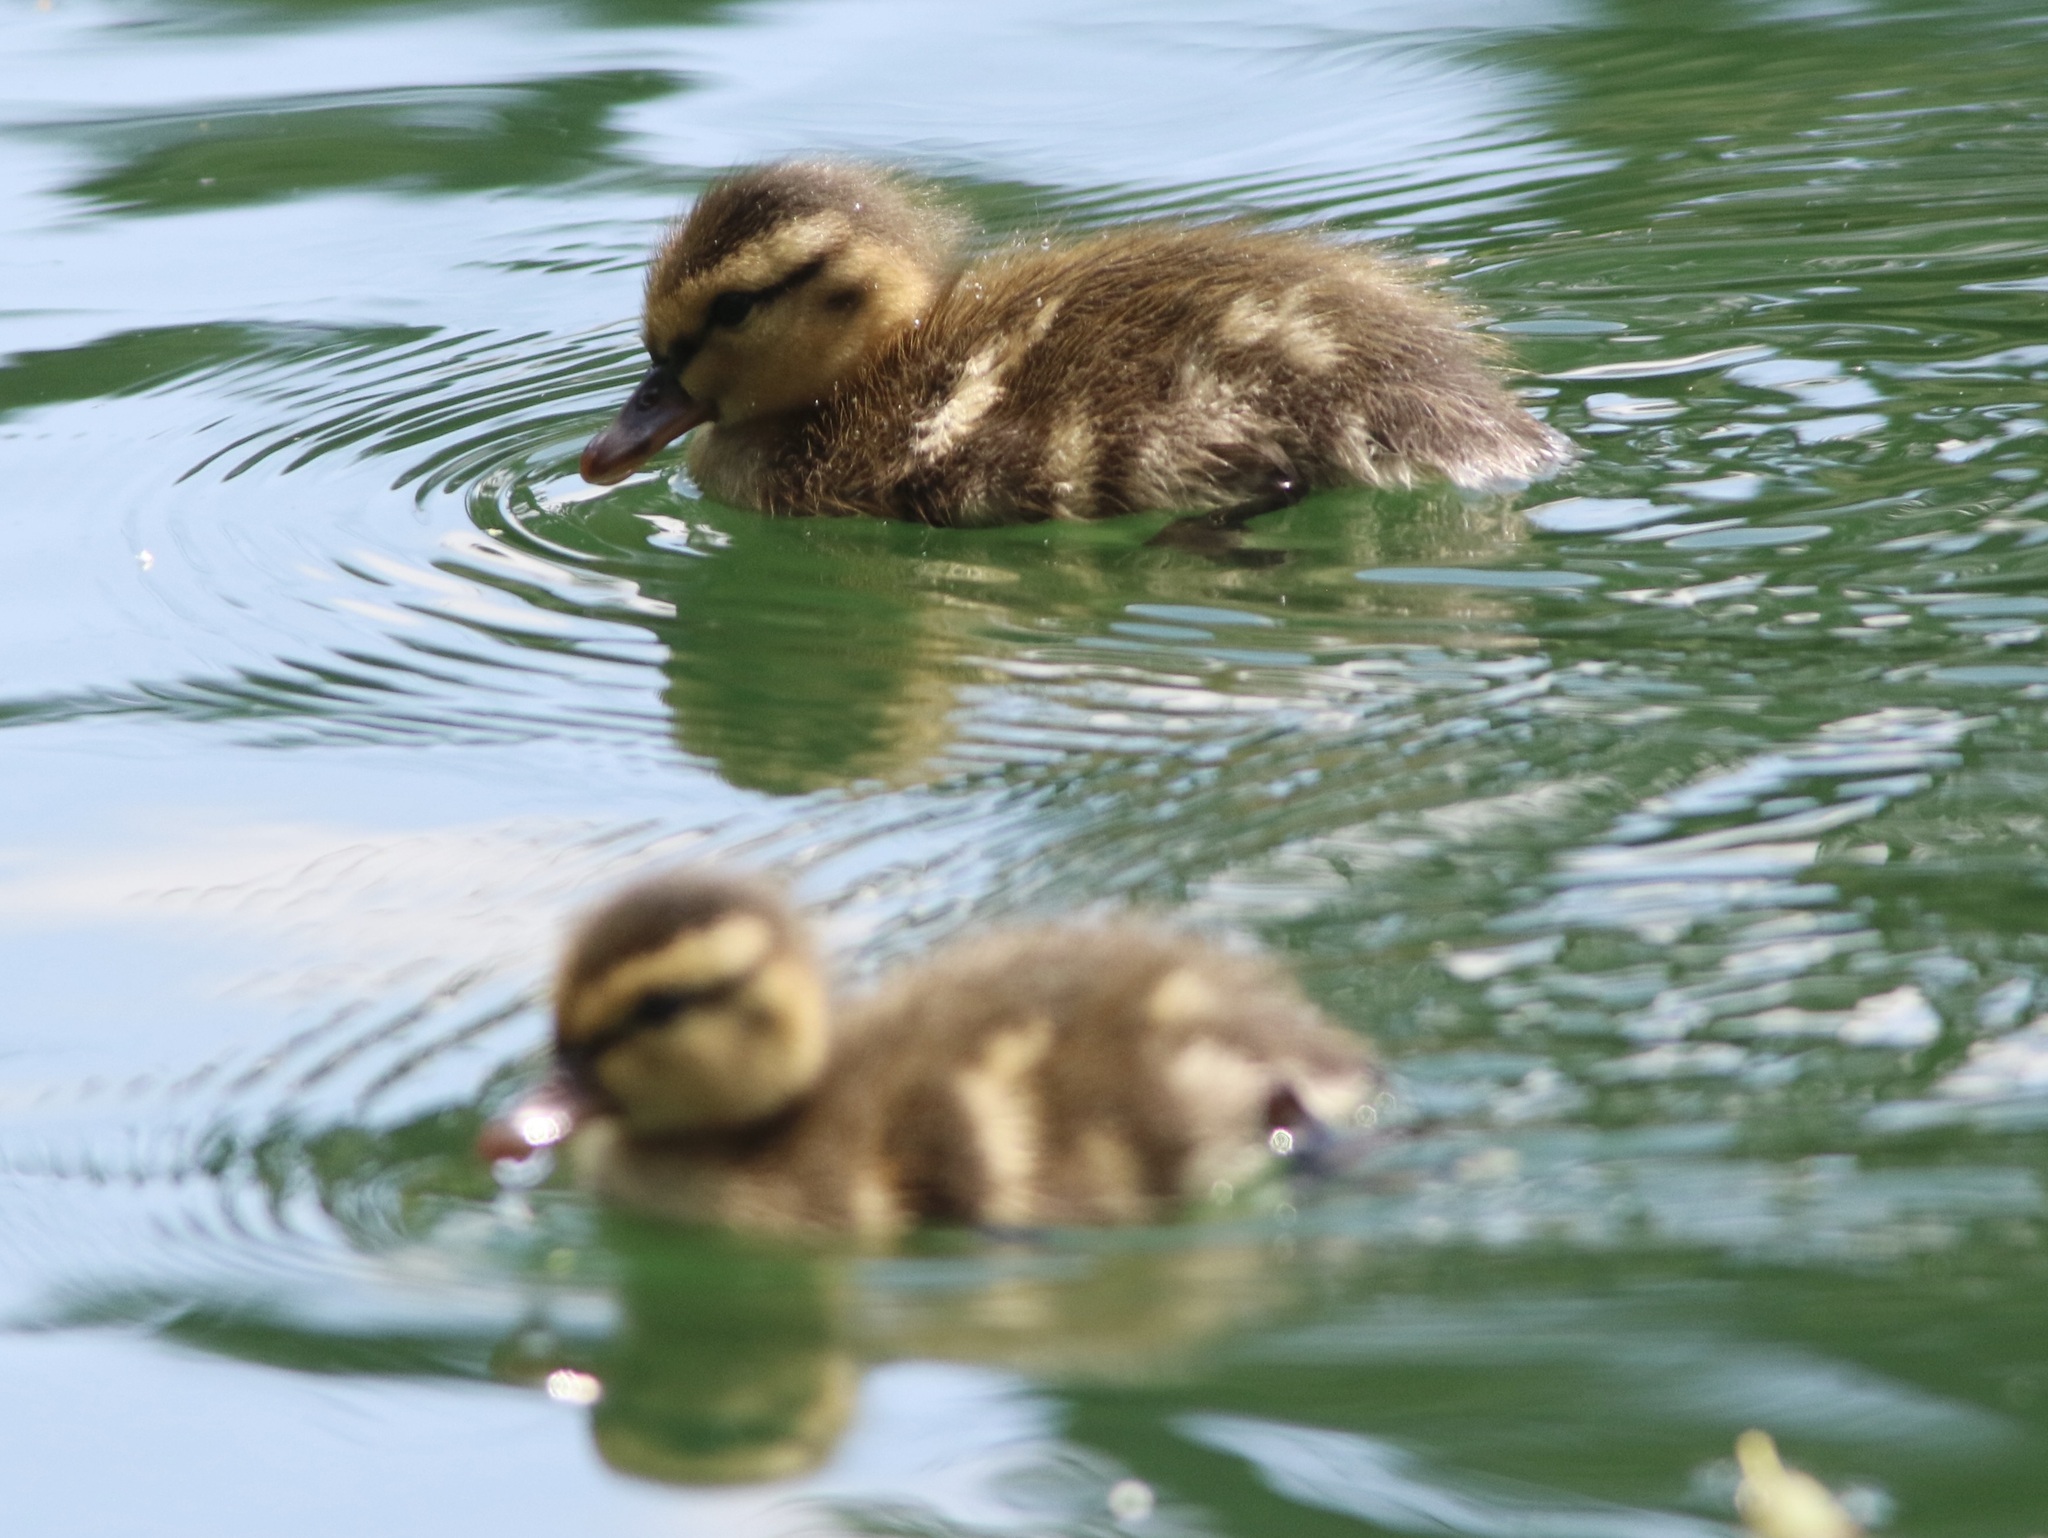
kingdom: Animalia
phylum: Chordata
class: Aves
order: Anseriformes
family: Anatidae
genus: Anas
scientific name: Anas platyrhynchos
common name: Mallard
